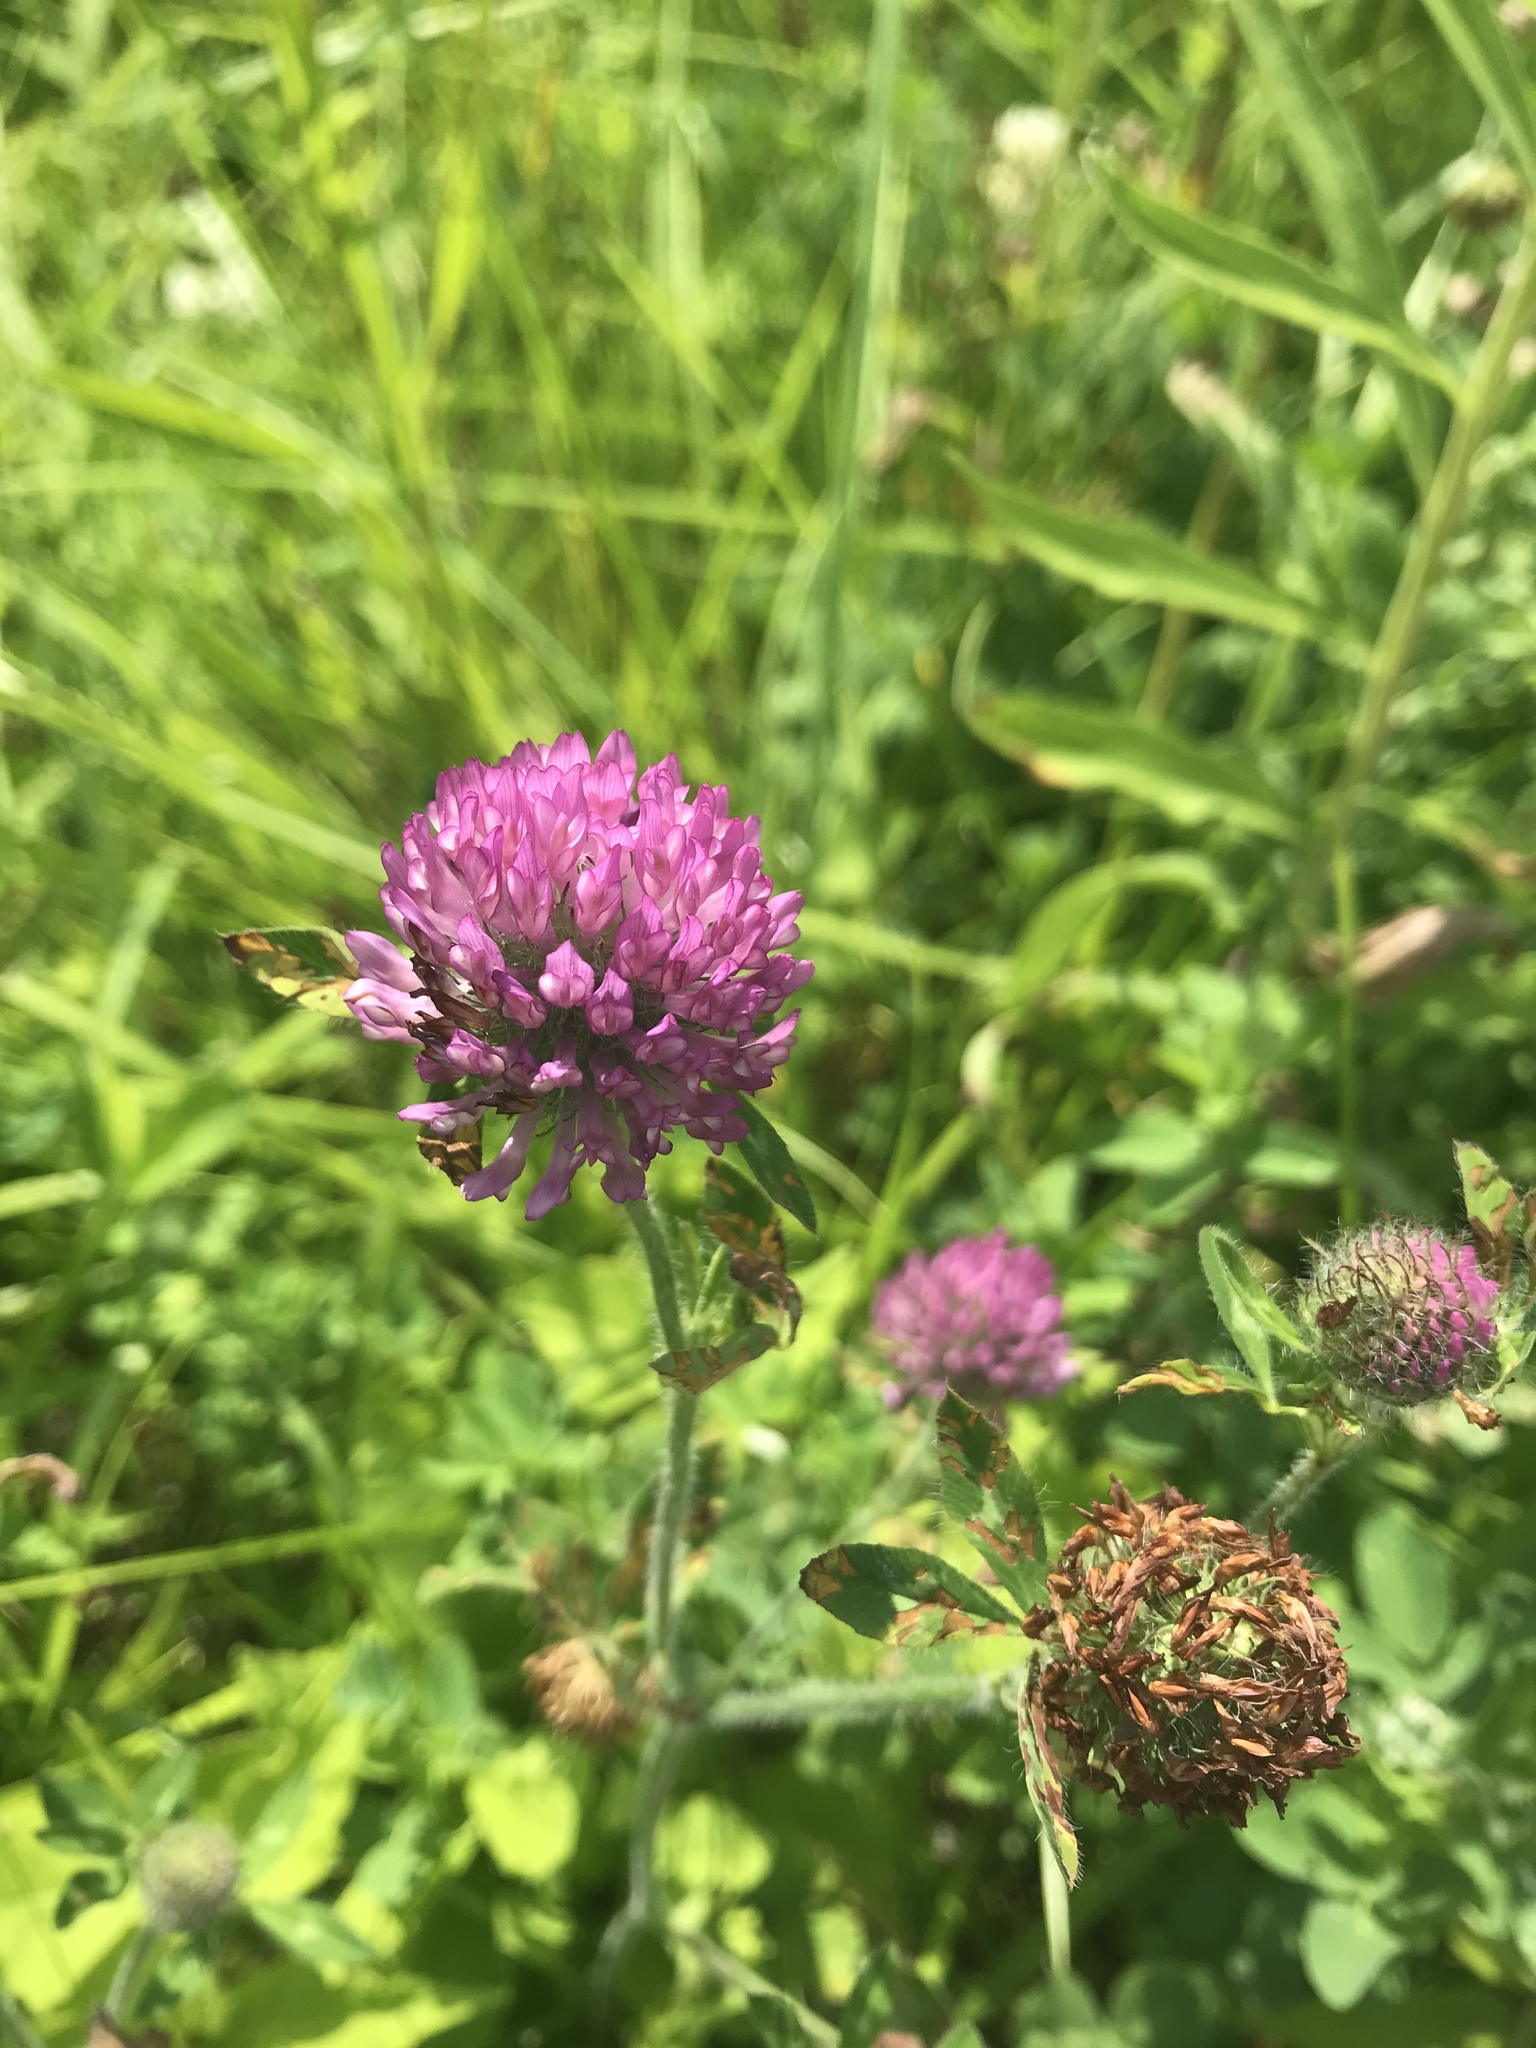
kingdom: Plantae
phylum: Tracheophyta
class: Magnoliopsida
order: Fabales
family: Fabaceae
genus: Trifolium
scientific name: Trifolium pratense
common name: Red clover
